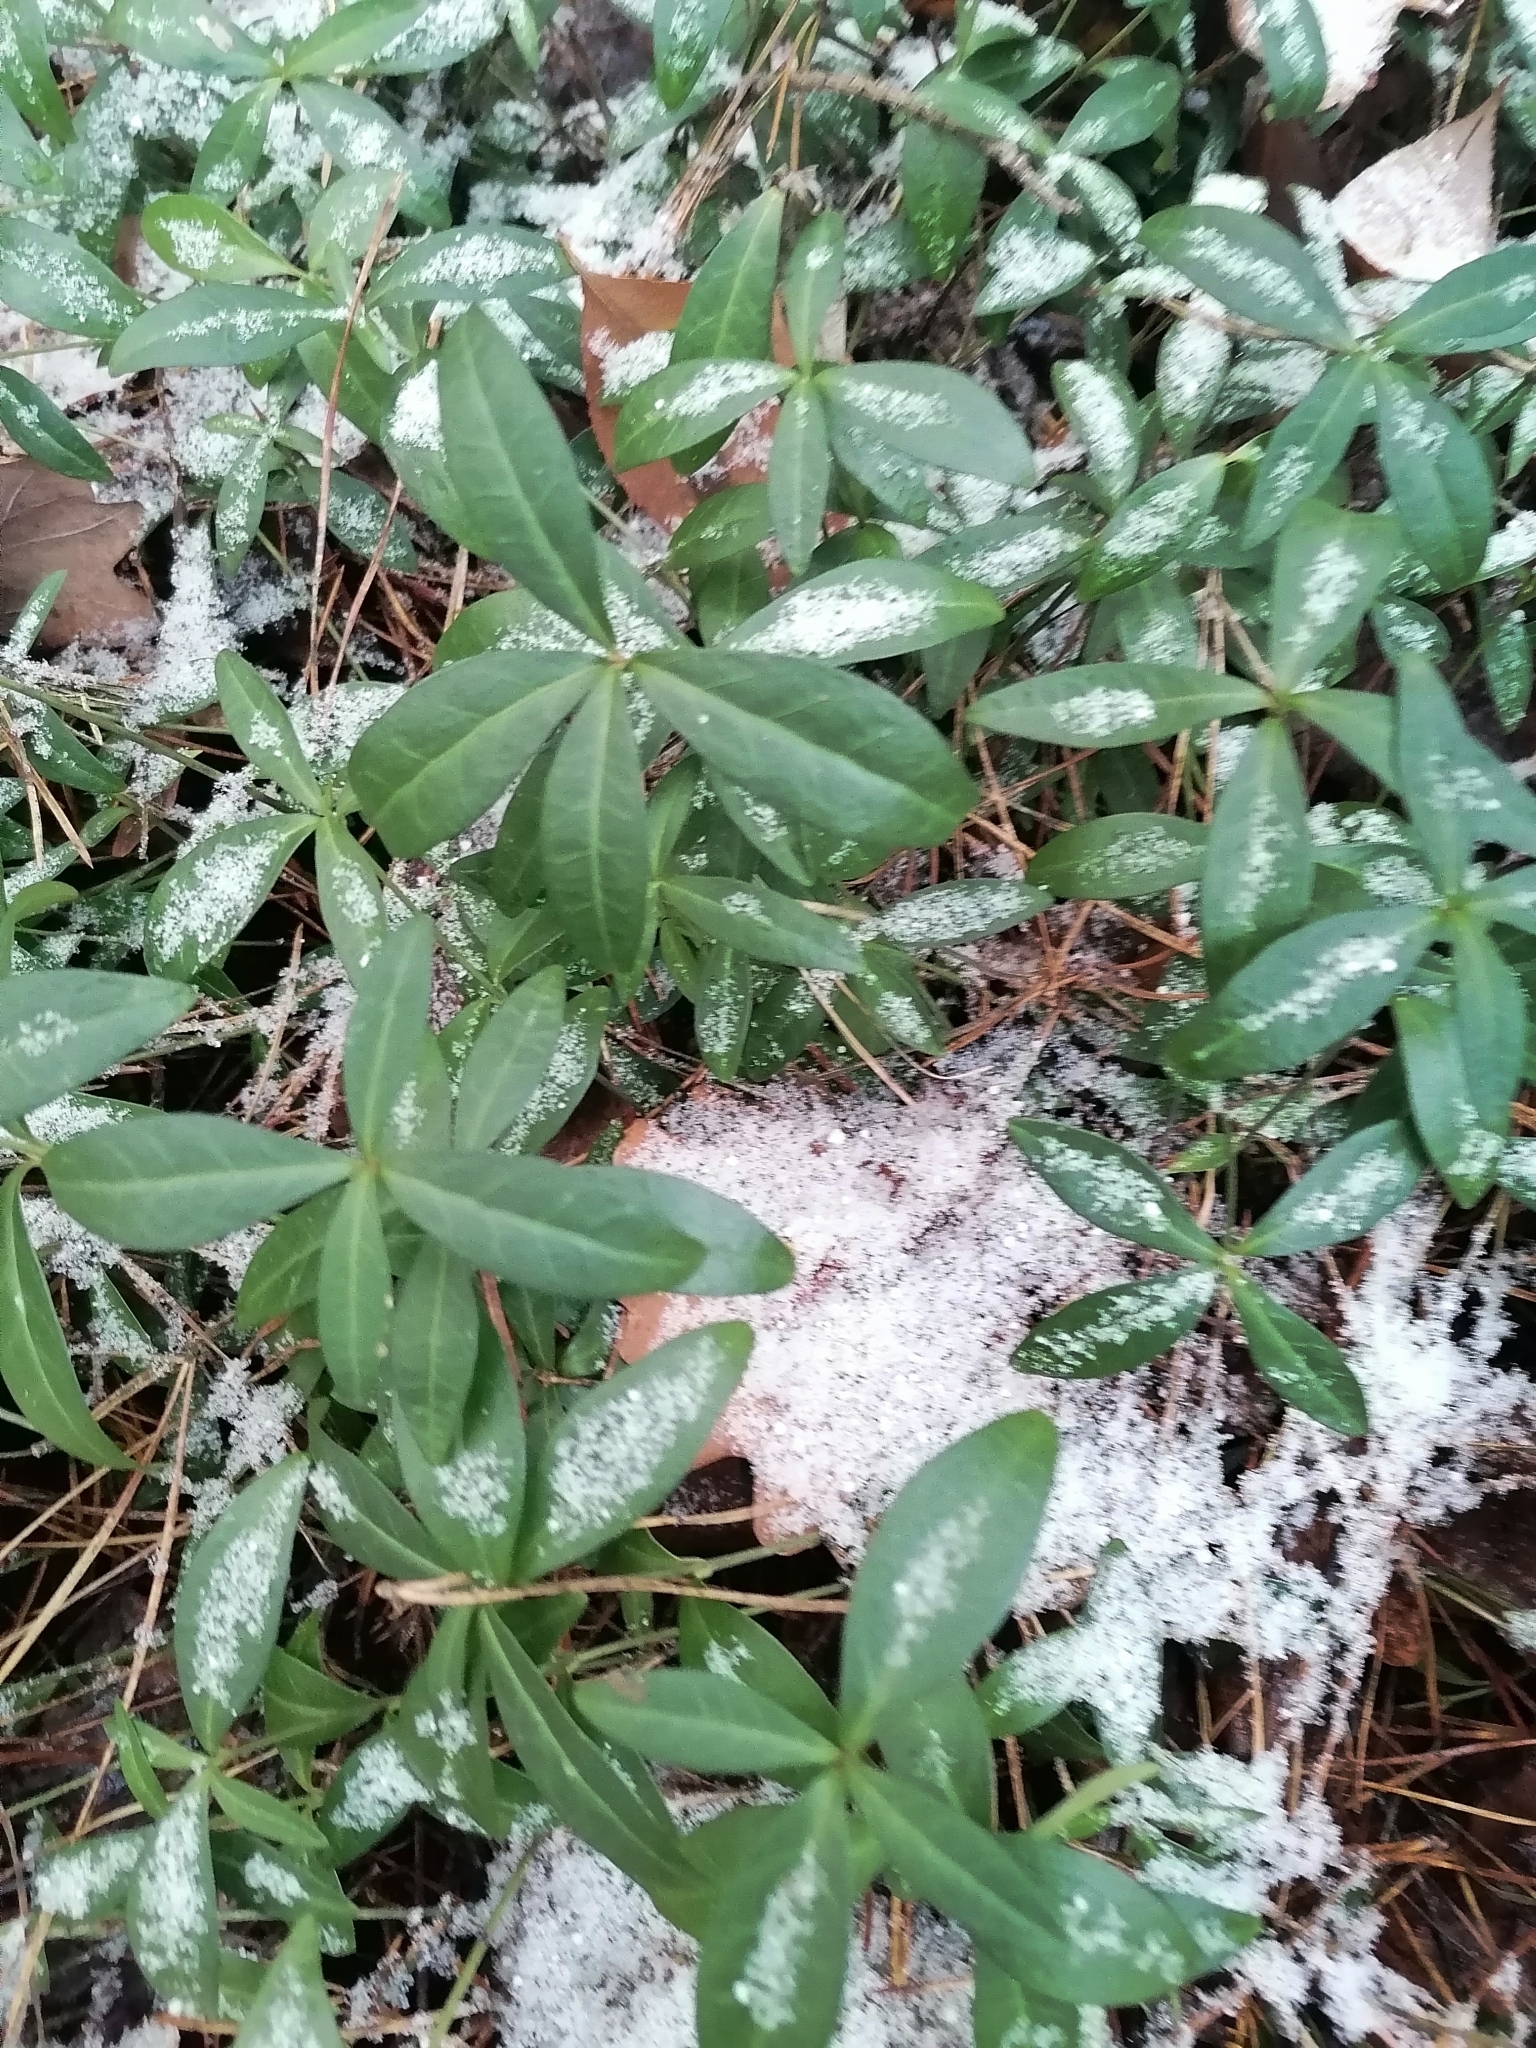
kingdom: Plantae
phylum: Tracheophyta
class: Magnoliopsida
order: Gentianales
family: Apocynaceae
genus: Vinca
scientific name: Vinca minor
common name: Lesser periwinkle
